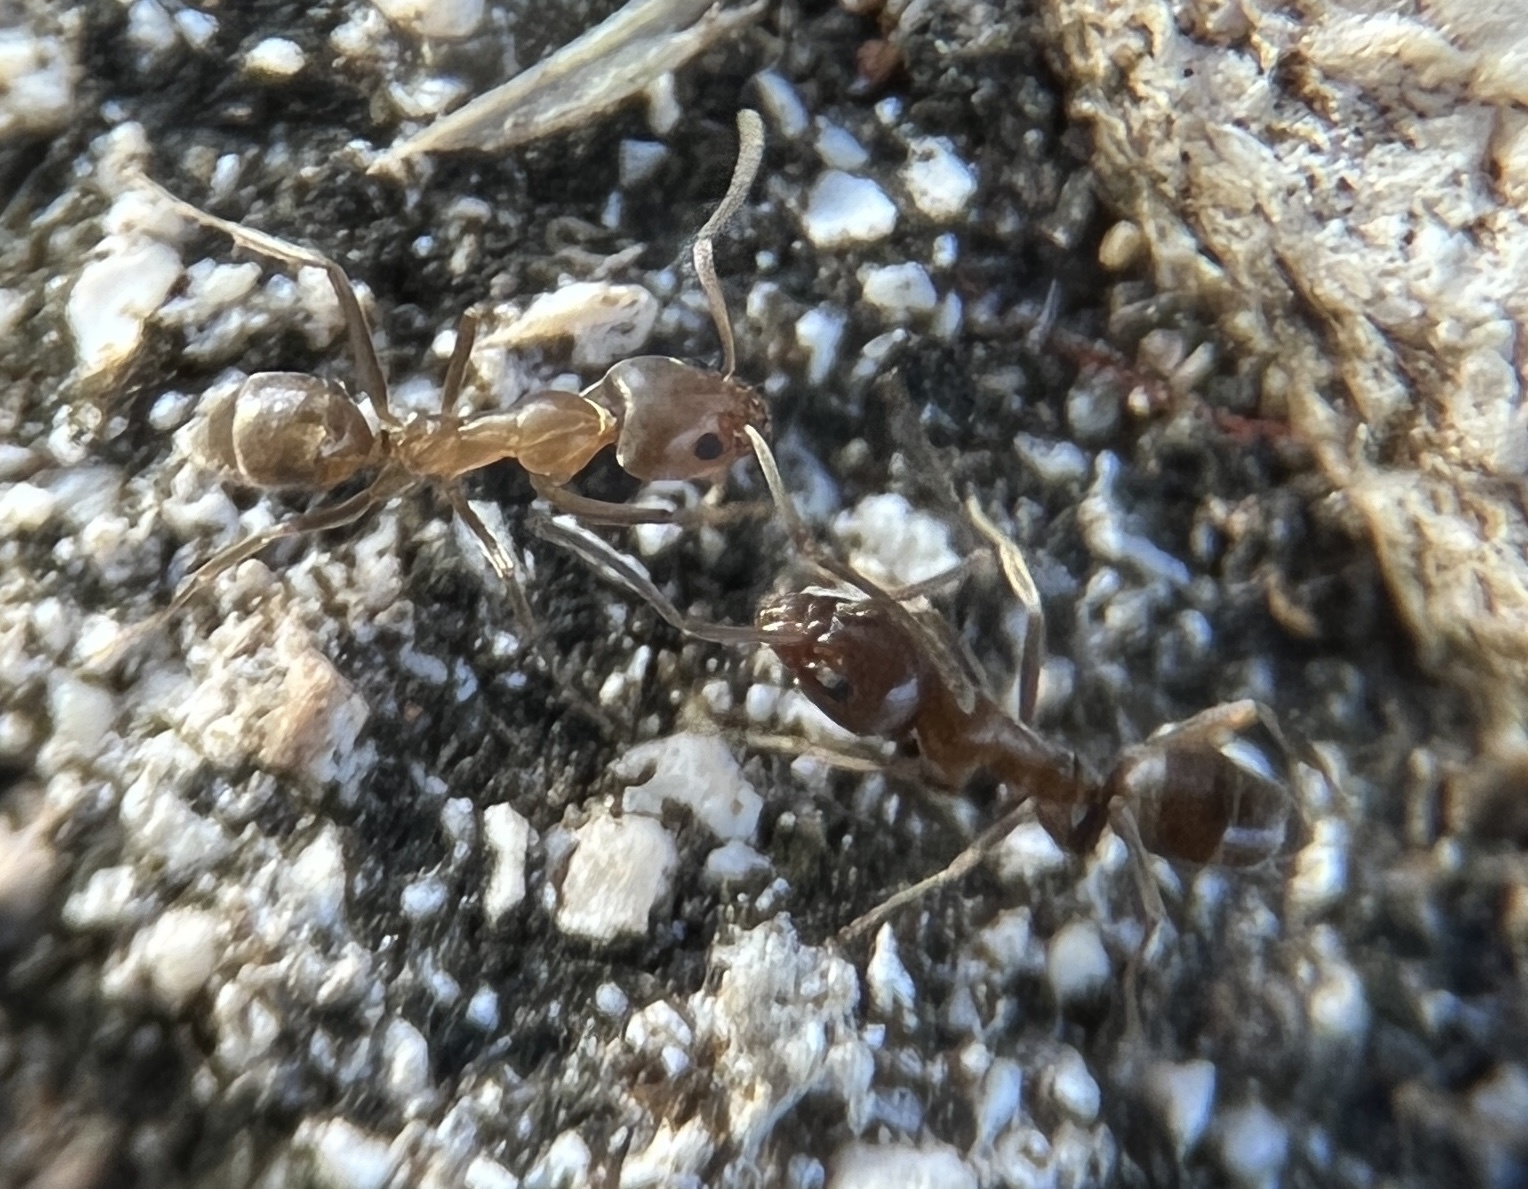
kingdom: Animalia
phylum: Arthropoda
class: Insecta
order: Hymenoptera
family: Formicidae
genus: Linepithema
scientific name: Linepithema humile
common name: Argentine ant
